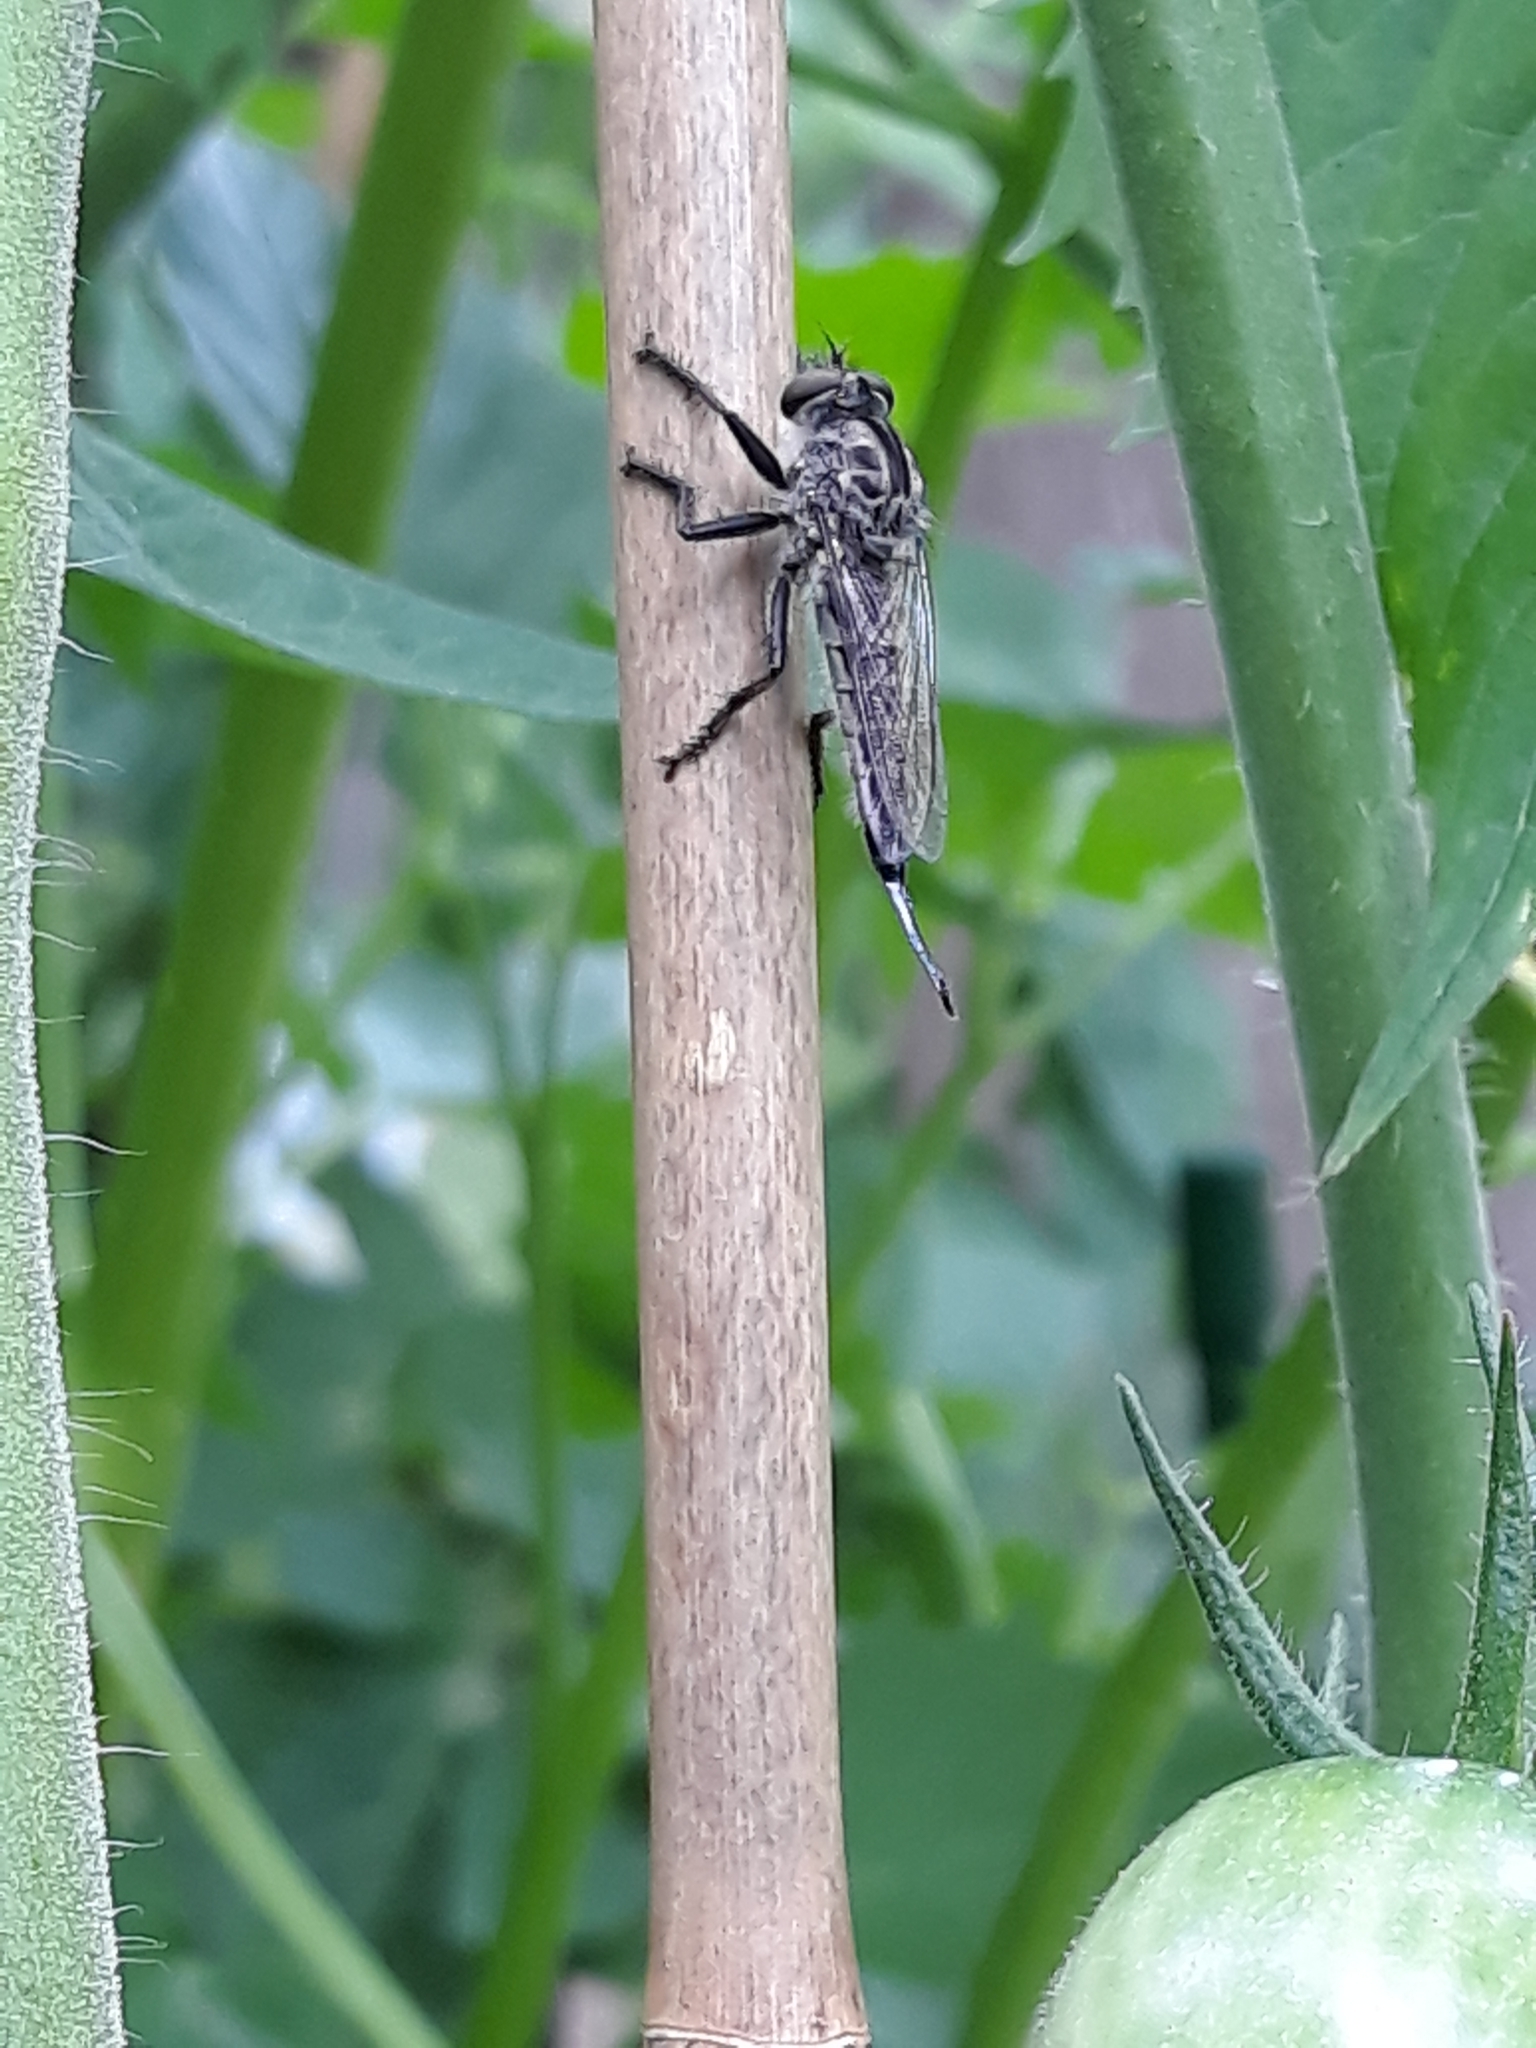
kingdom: Animalia
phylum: Arthropoda
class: Insecta
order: Diptera
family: Asilidae
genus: Efferia
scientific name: Efferia aestuans
